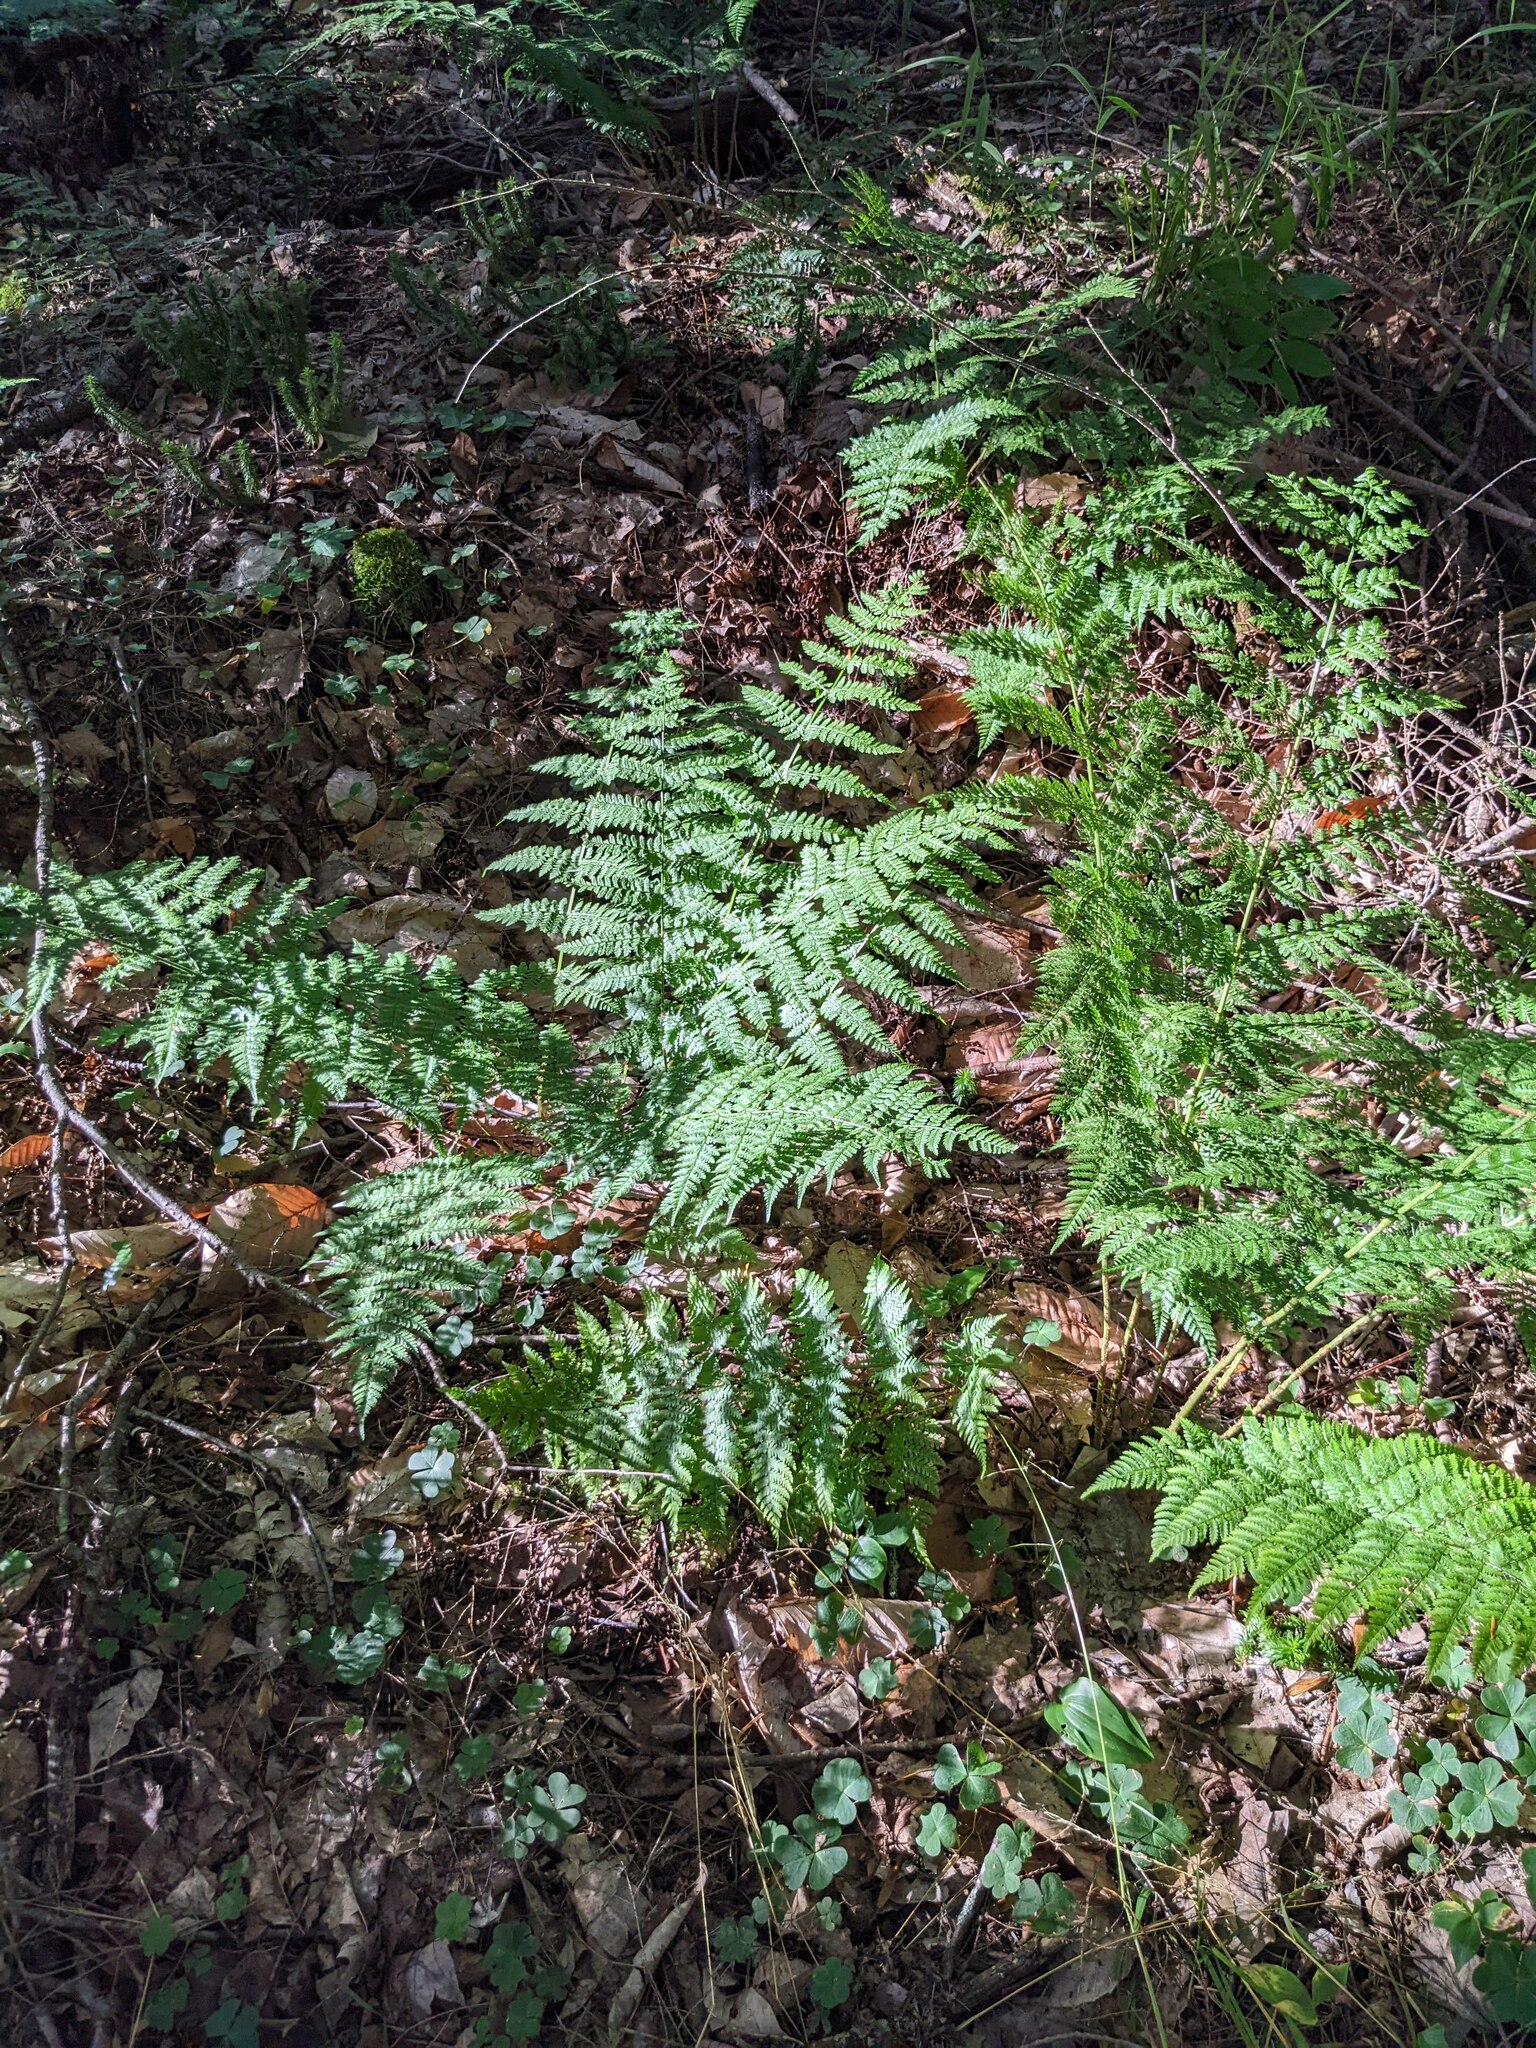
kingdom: Plantae
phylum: Tracheophyta
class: Polypodiopsida
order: Polypodiales
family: Dryopteridaceae
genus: Dryopteris
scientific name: Dryopteris intermedia
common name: Evergreen wood fern
